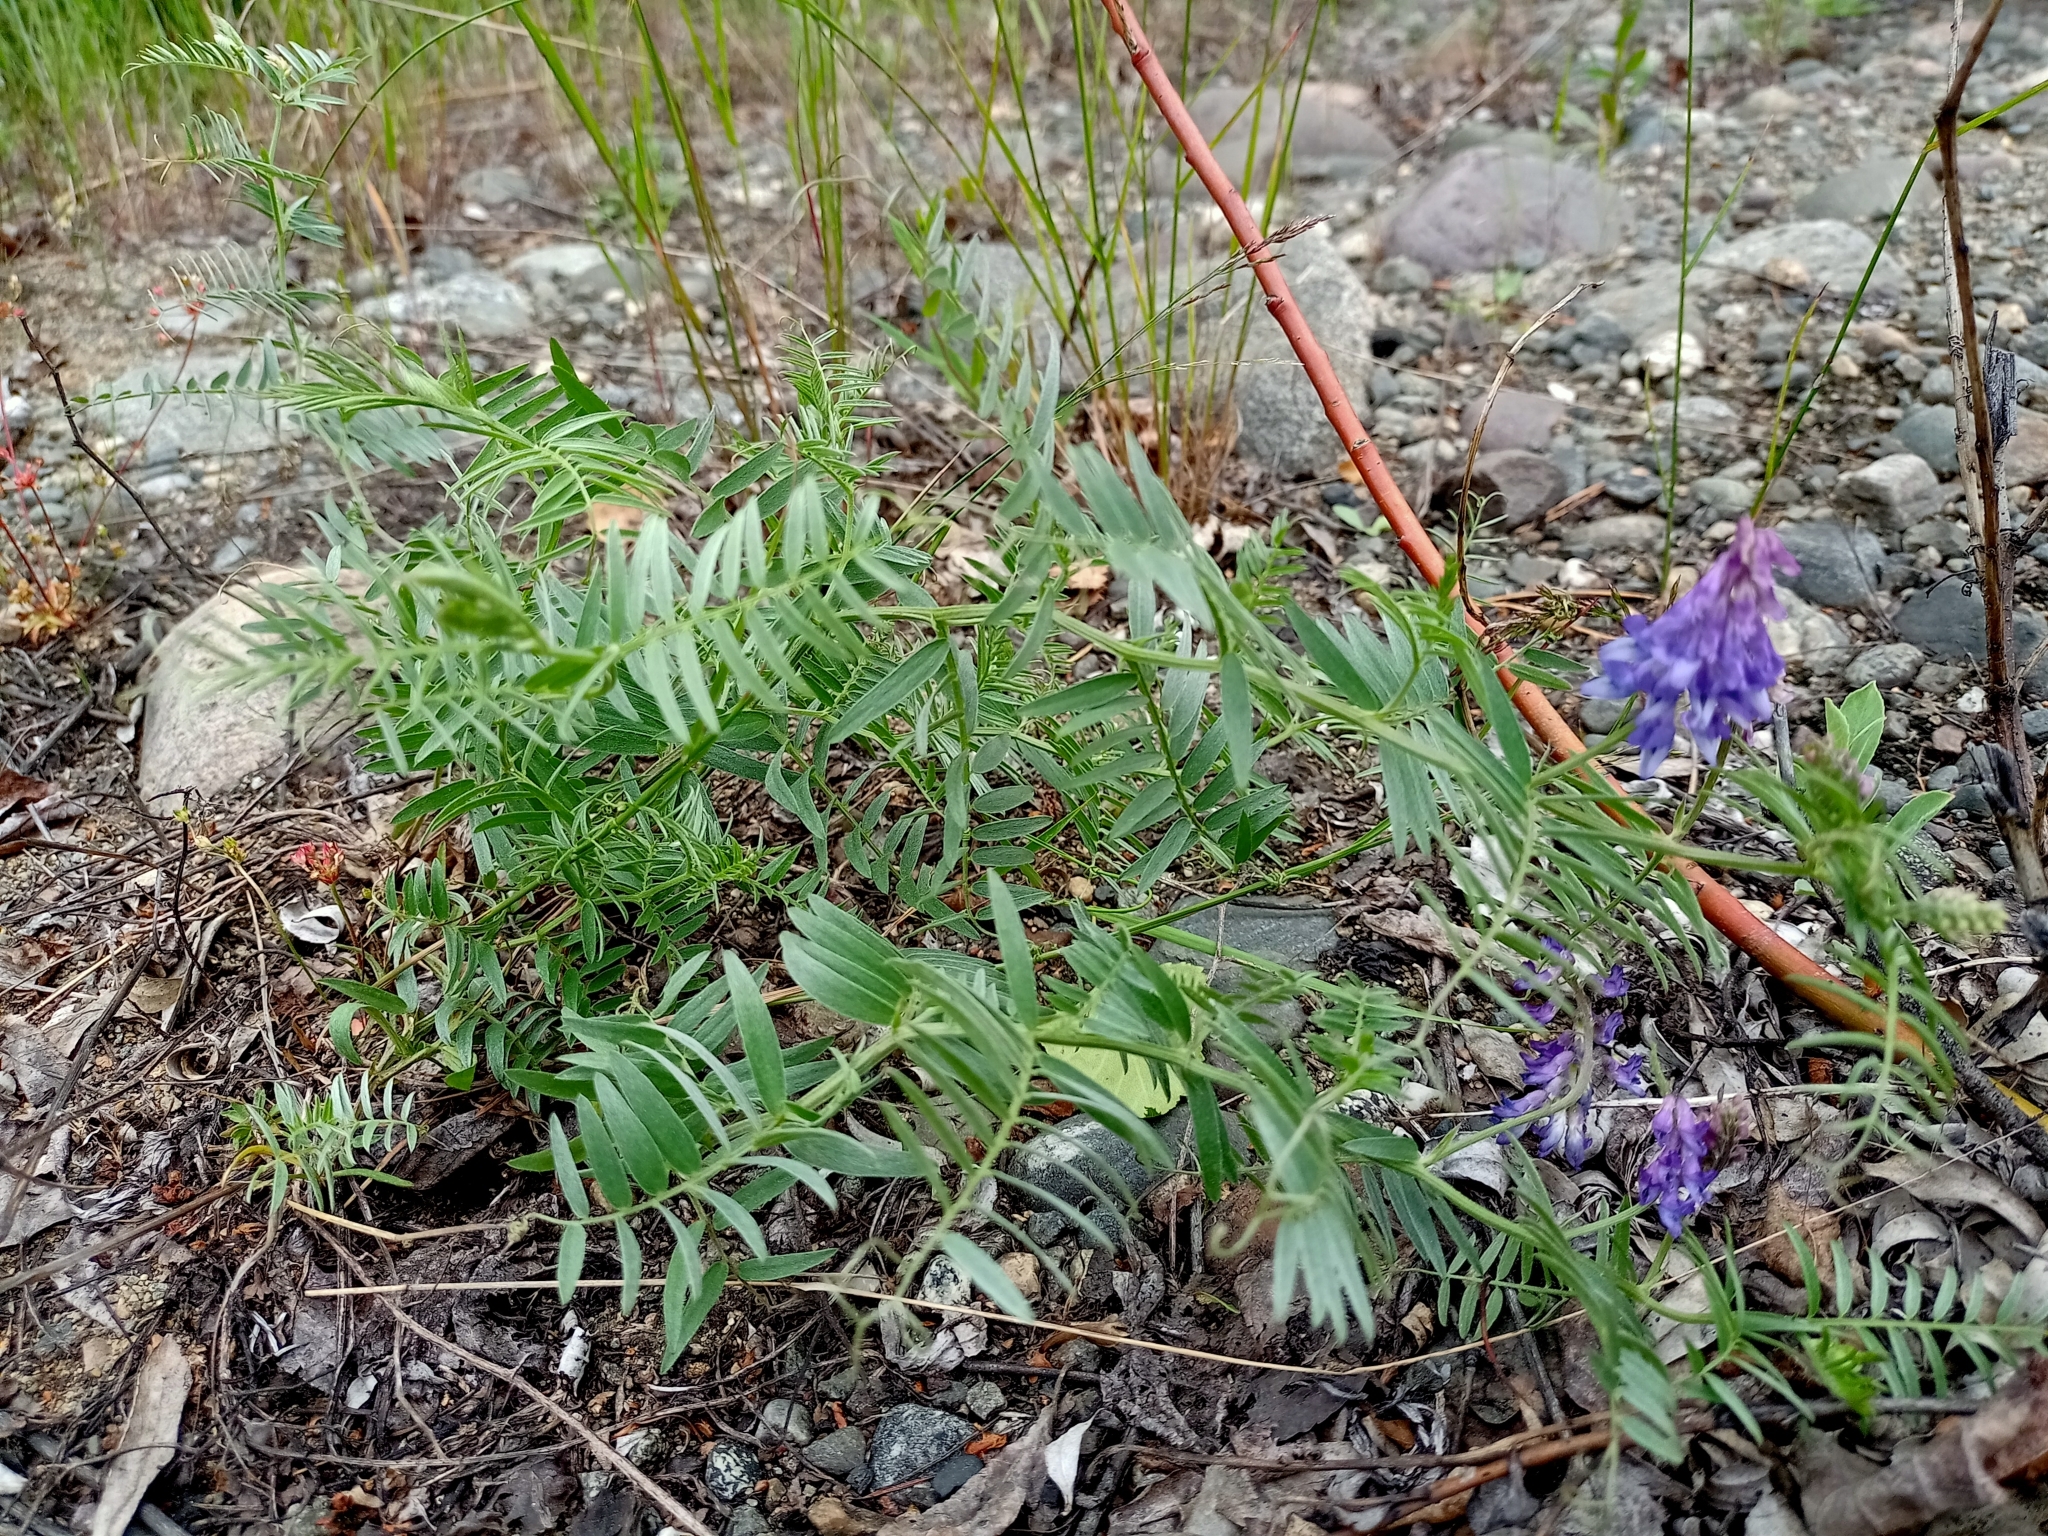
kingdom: Plantae
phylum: Tracheophyta
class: Magnoliopsida
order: Fabales
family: Fabaceae
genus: Vicia
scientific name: Vicia cracca
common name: Bird vetch
